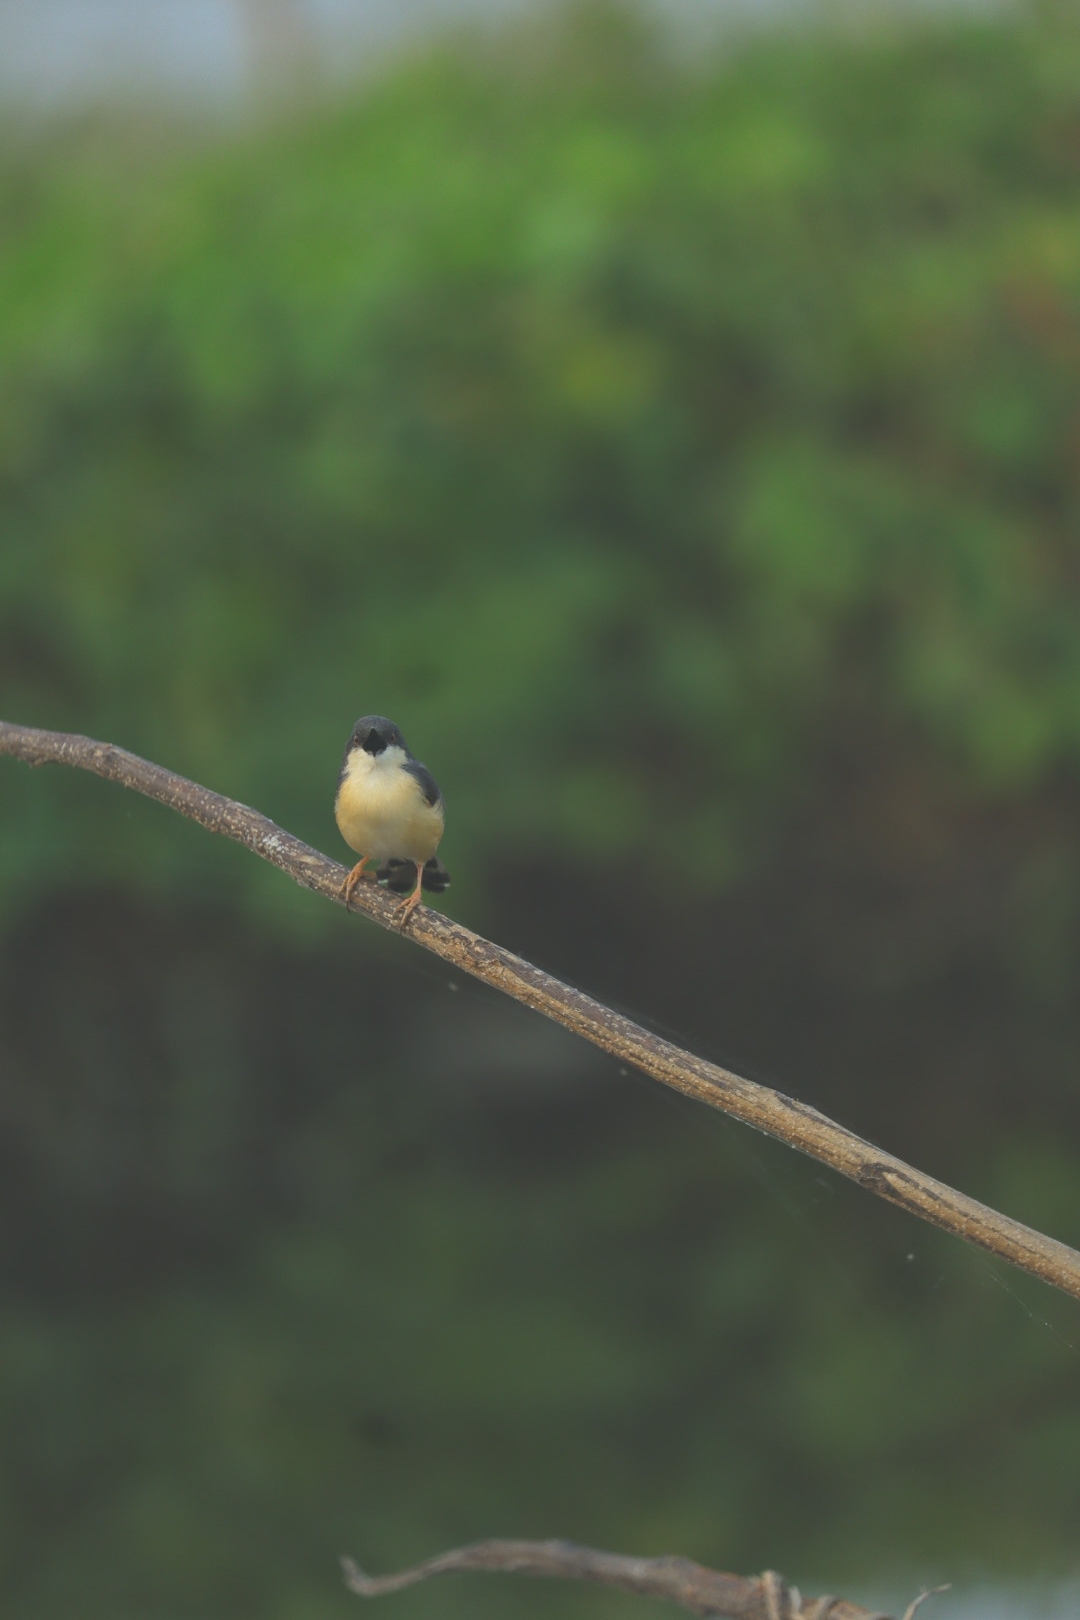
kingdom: Animalia
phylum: Chordata
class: Aves
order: Passeriformes
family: Cisticolidae
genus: Prinia
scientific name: Prinia socialis
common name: Ashy prinia
